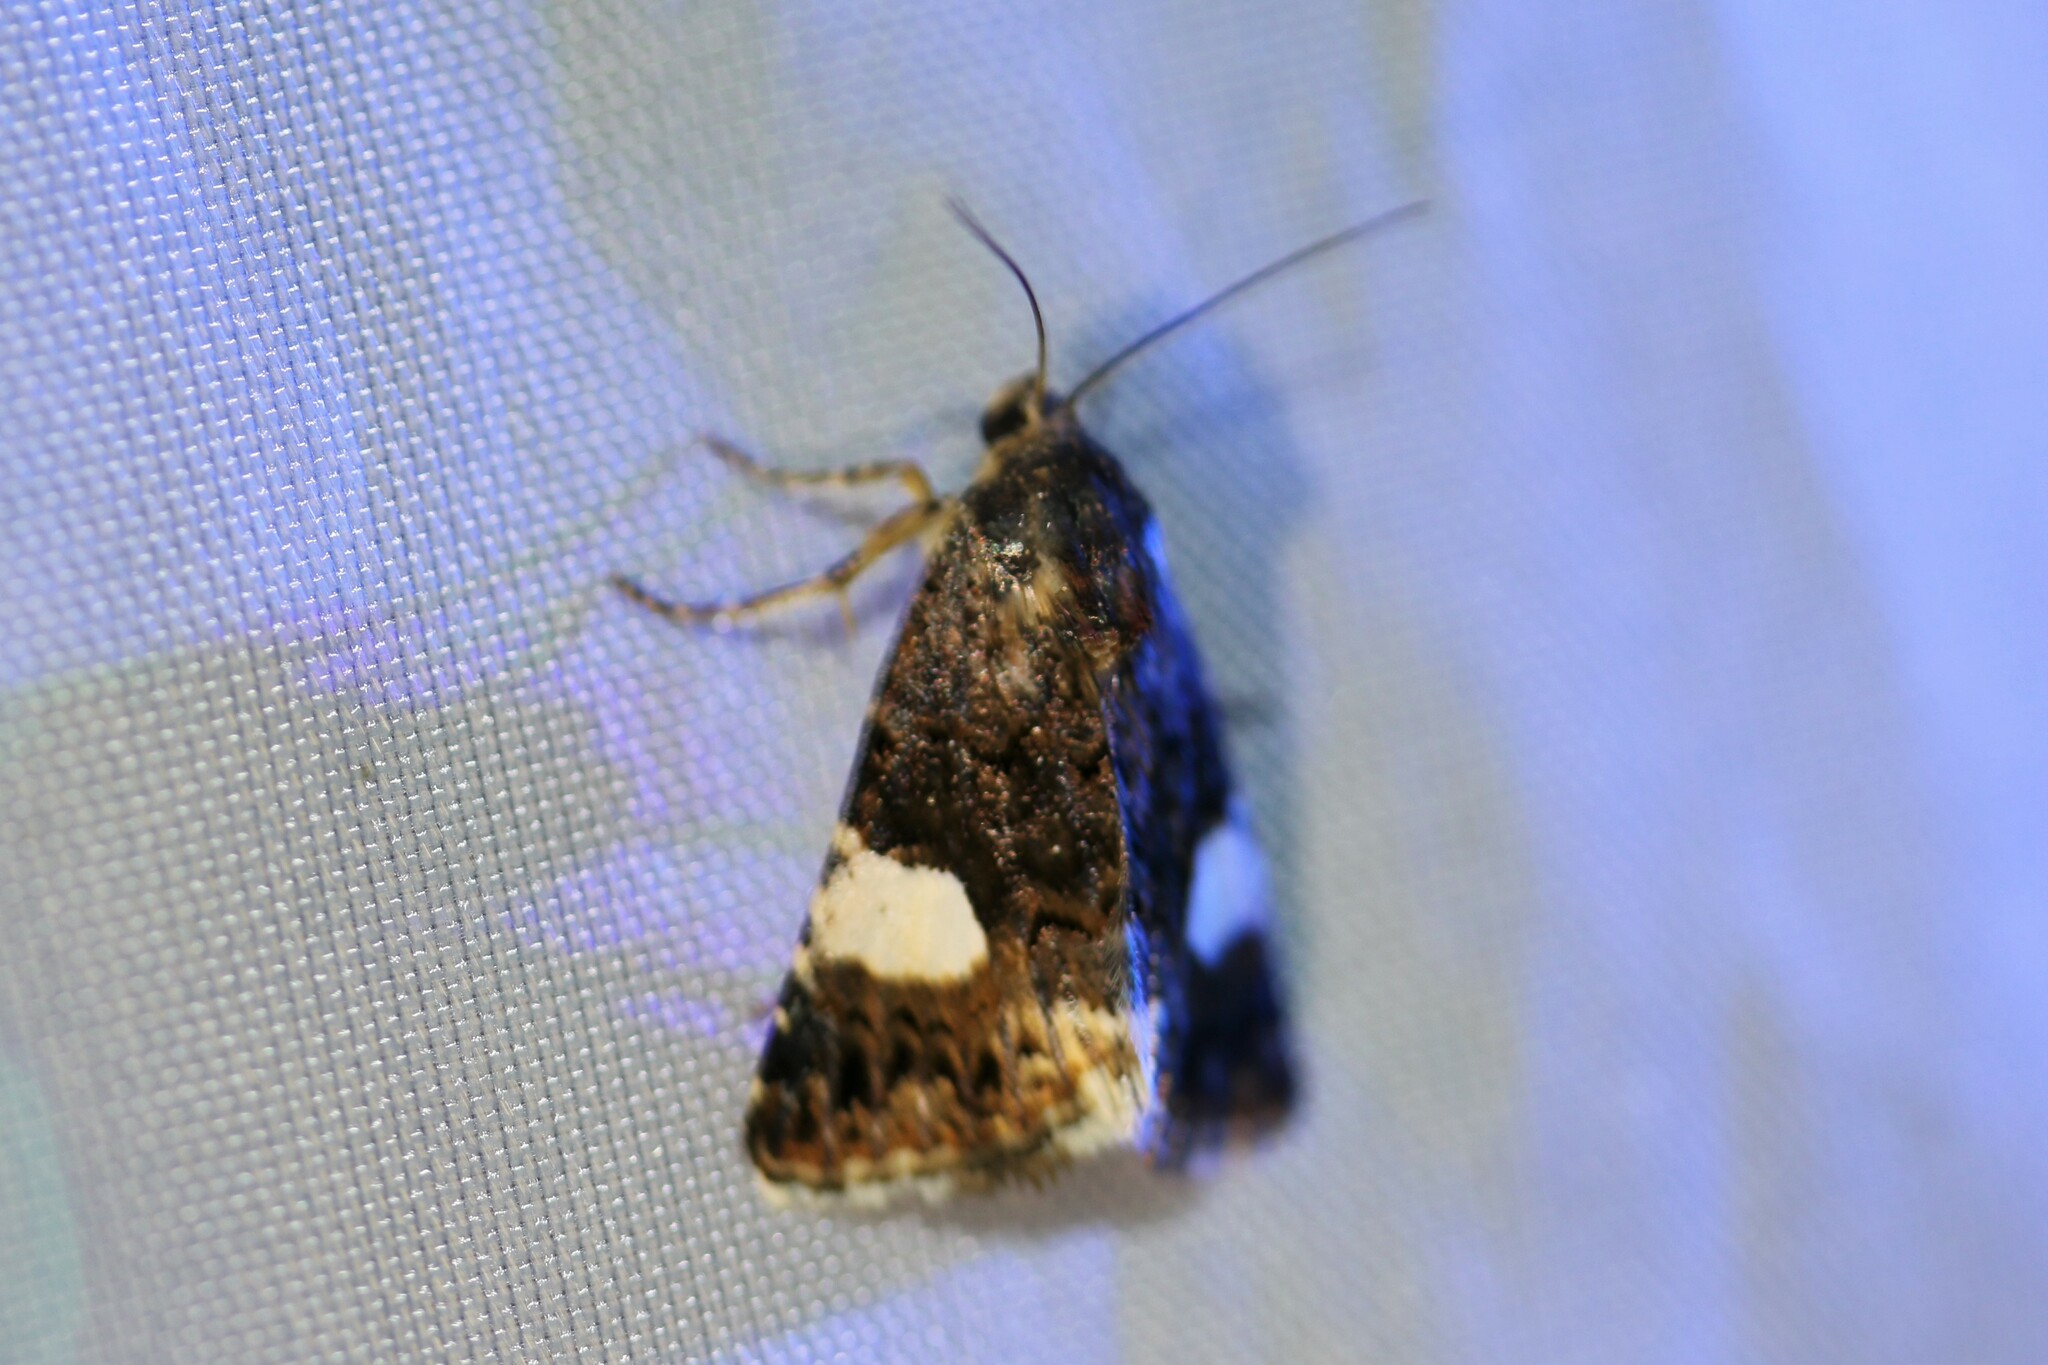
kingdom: Animalia
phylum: Arthropoda
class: Insecta
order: Lepidoptera
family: Erebidae
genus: Tyta
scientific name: Tyta luctuosa
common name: Four-spotted
